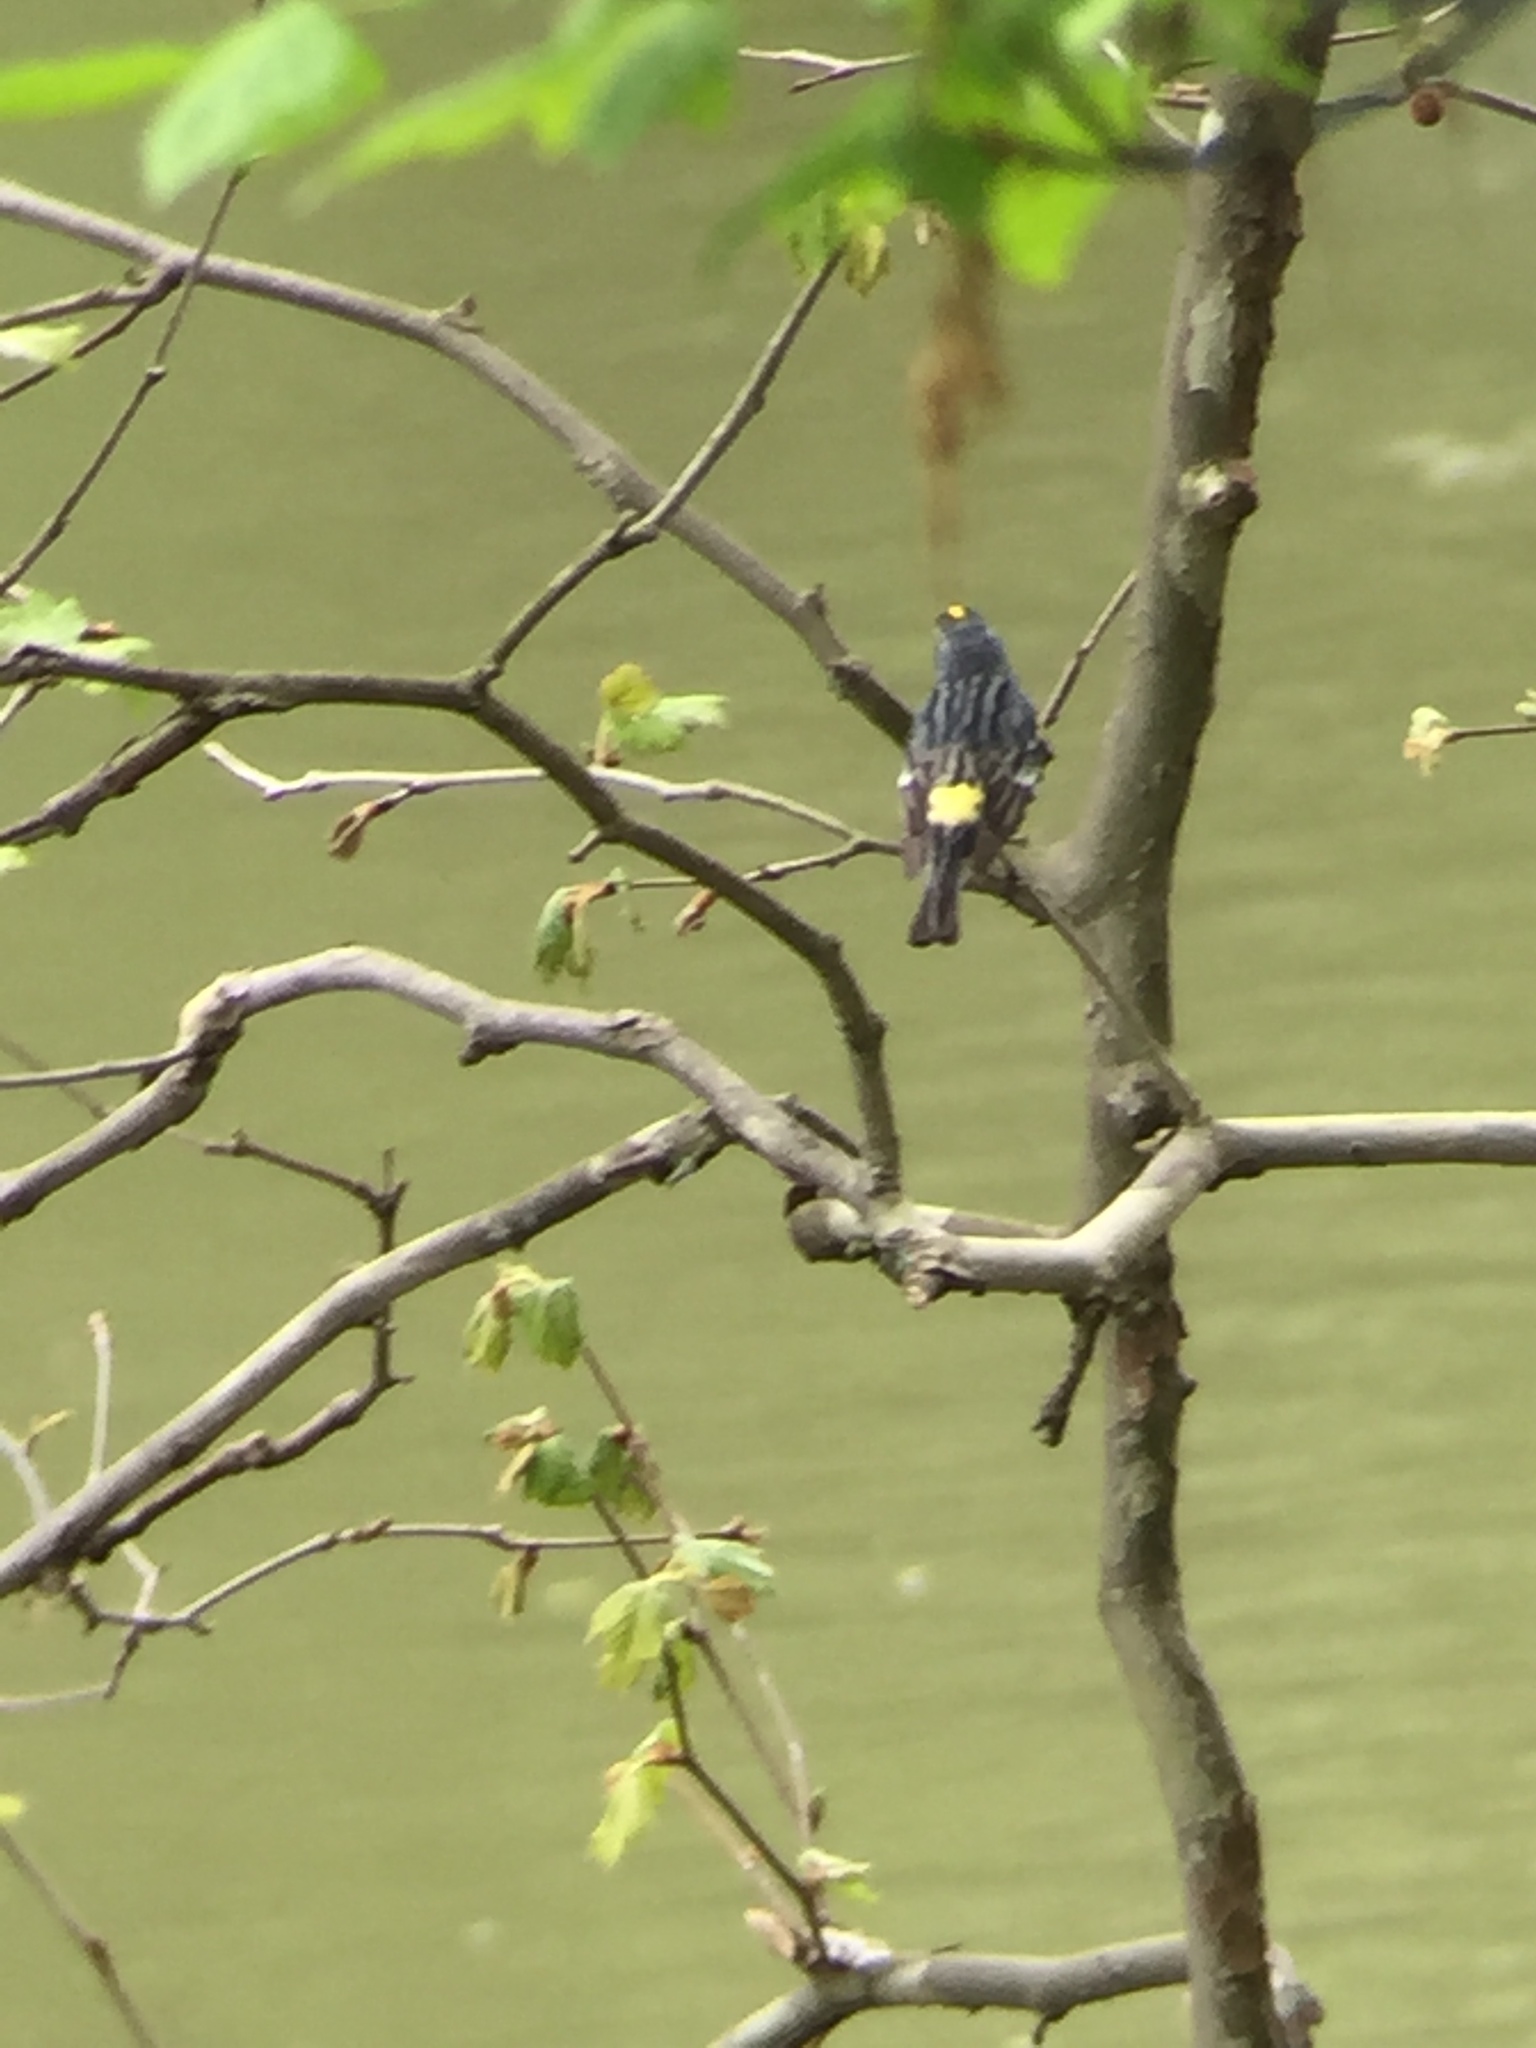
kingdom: Animalia
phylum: Chordata
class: Aves
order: Passeriformes
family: Parulidae
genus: Setophaga
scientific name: Setophaga coronata
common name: Myrtle warbler
